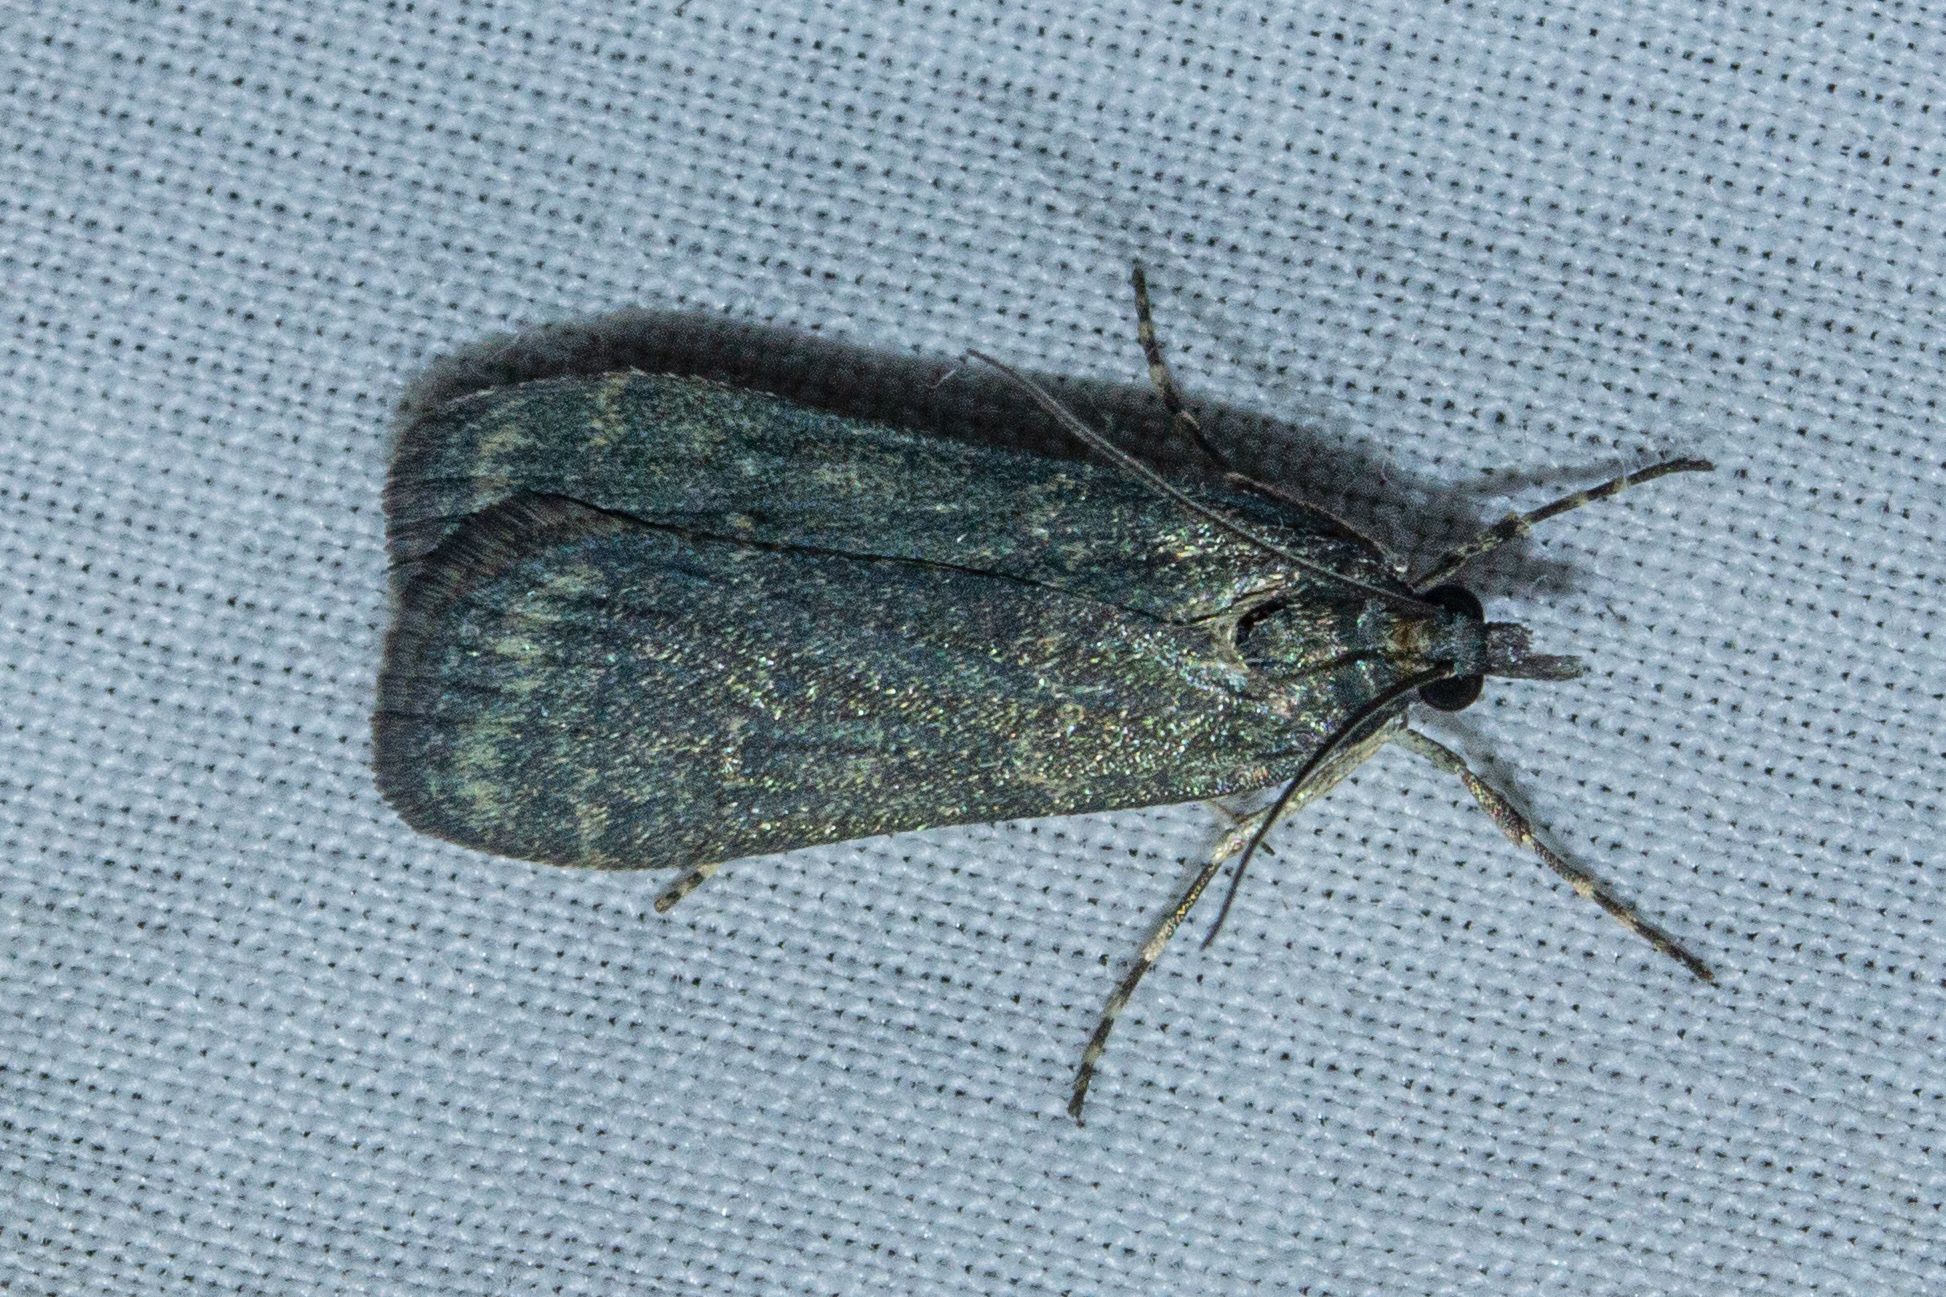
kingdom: Animalia
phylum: Arthropoda
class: Insecta
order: Lepidoptera
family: Crambidae
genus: Eudonia
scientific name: Eudonia cataxesta
